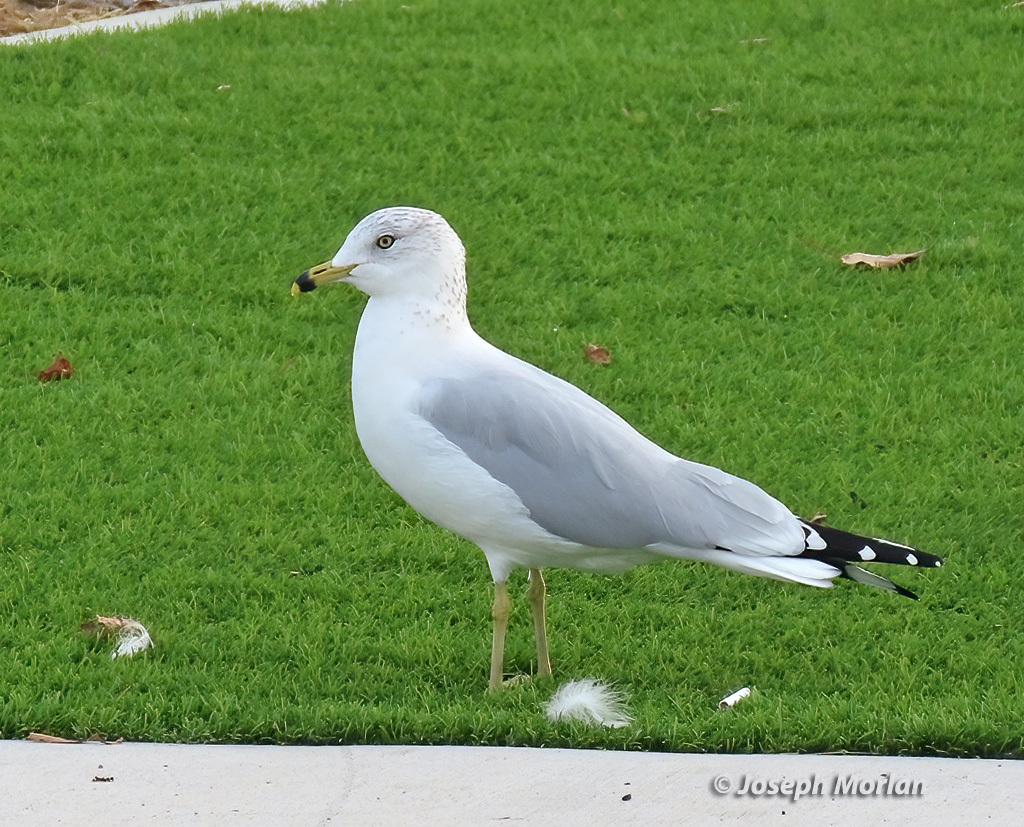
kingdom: Animalia
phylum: Chordata
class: Aves
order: Charadriiformes
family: Laridae
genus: Larus
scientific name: Larus delawarensis
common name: Ring-billed gull
